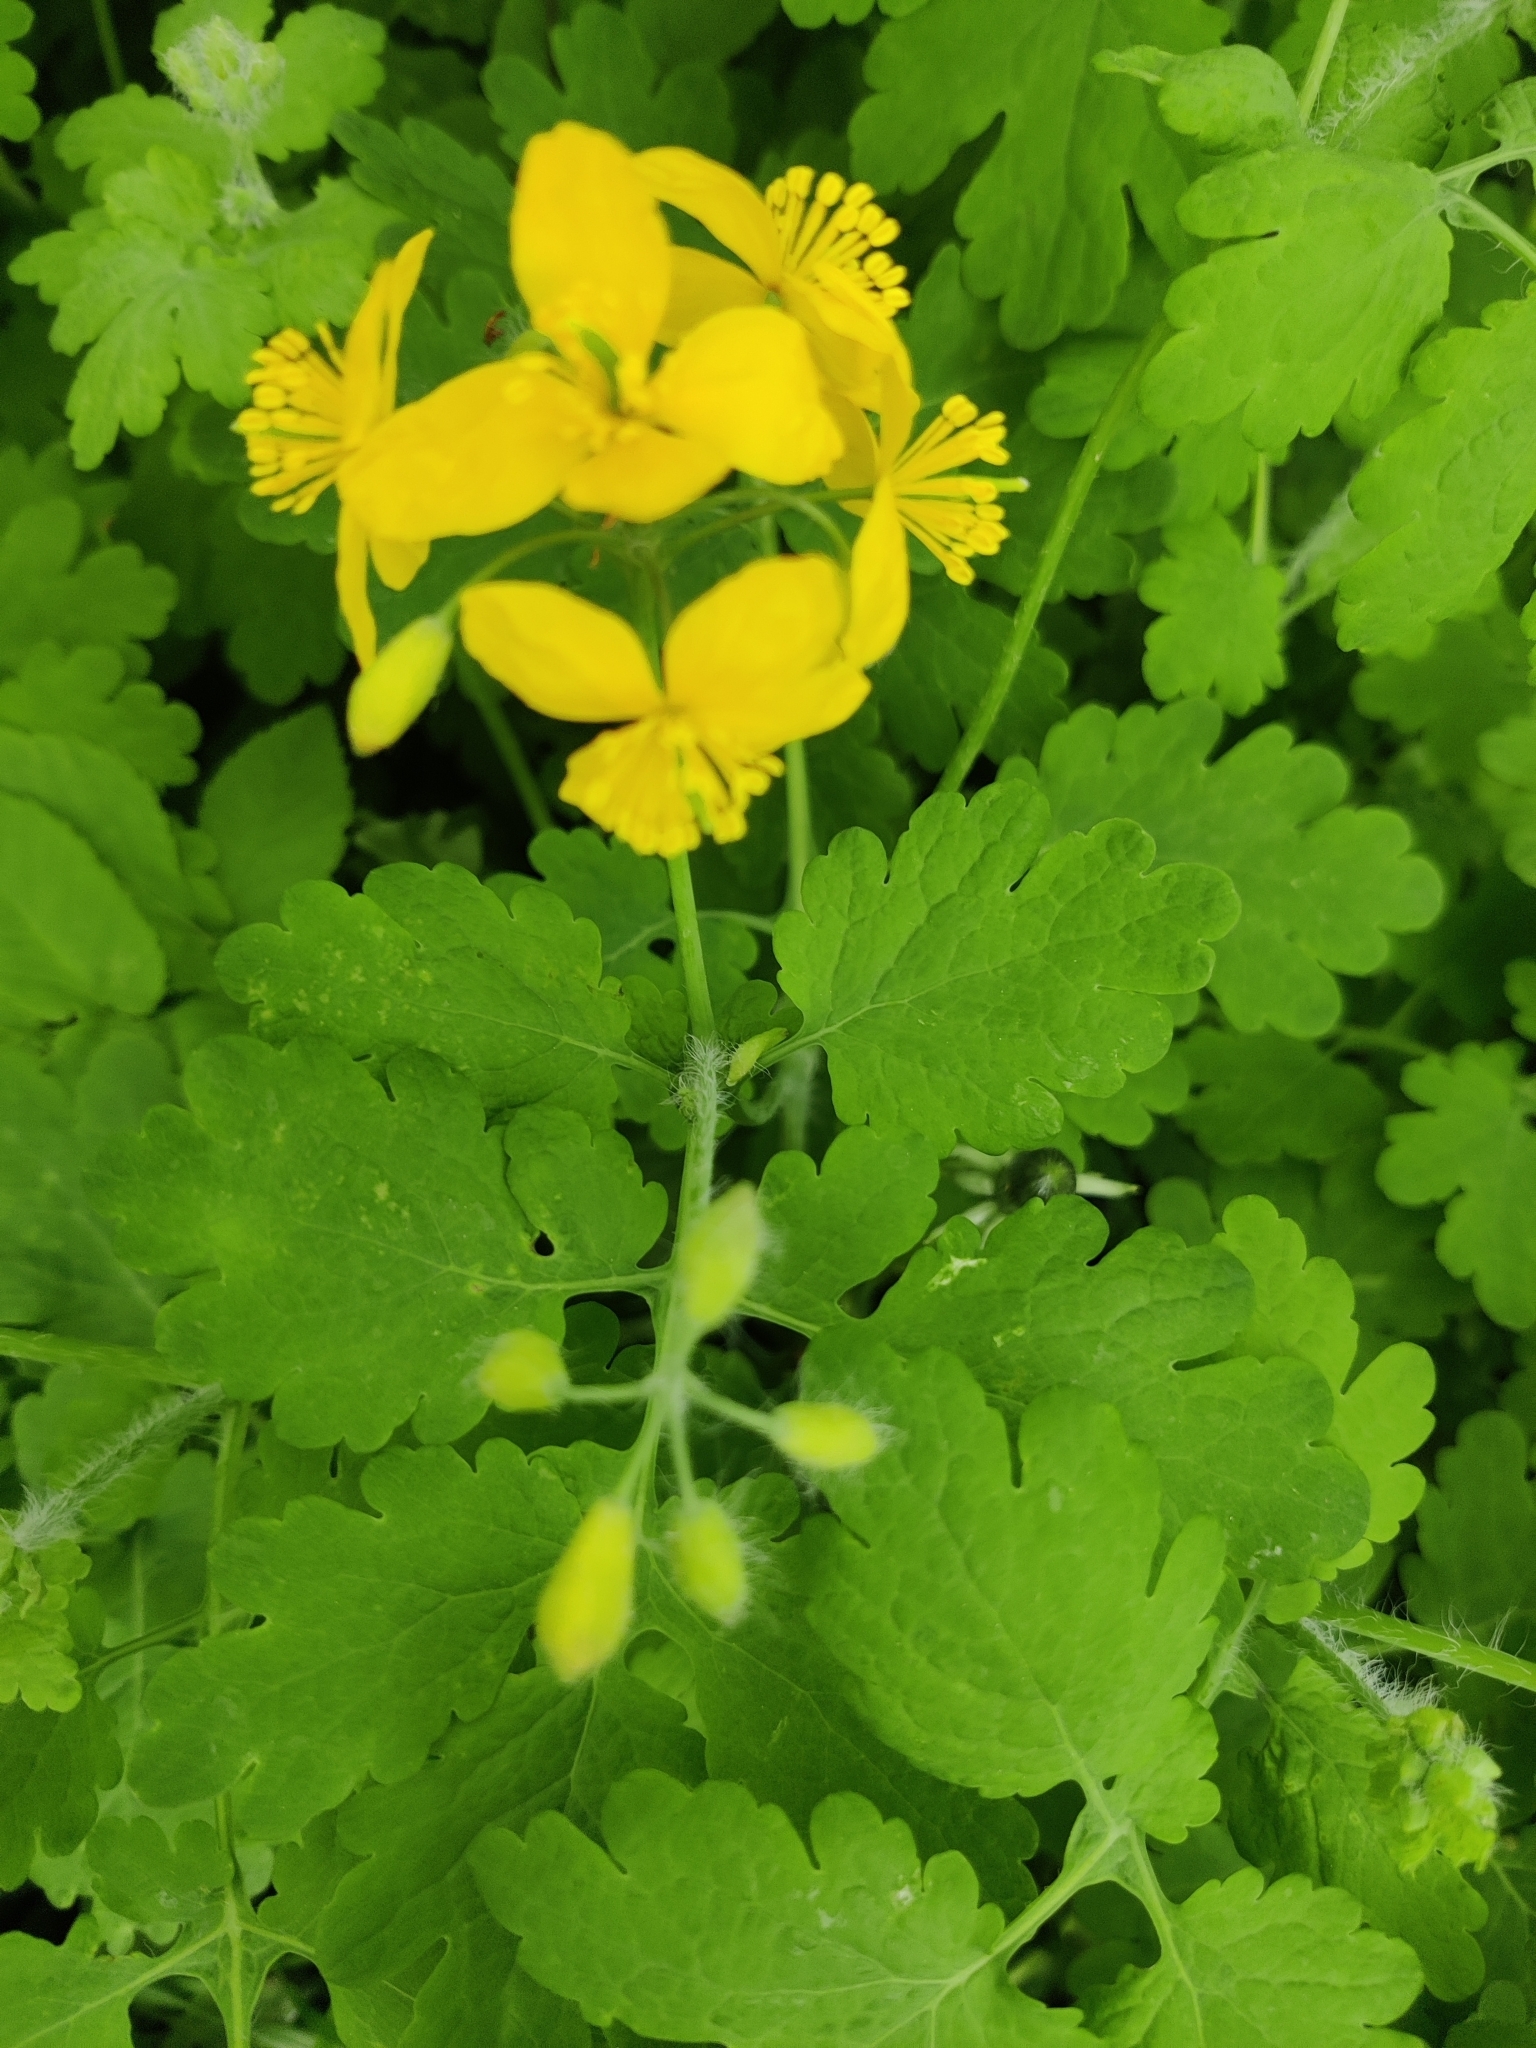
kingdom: Plantae
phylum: Tracheophyta
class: Magnoliopsida
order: Ranunculales
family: Papaveraceae
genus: Chelidonium
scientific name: Chelidonium majus
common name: Greater celandine
